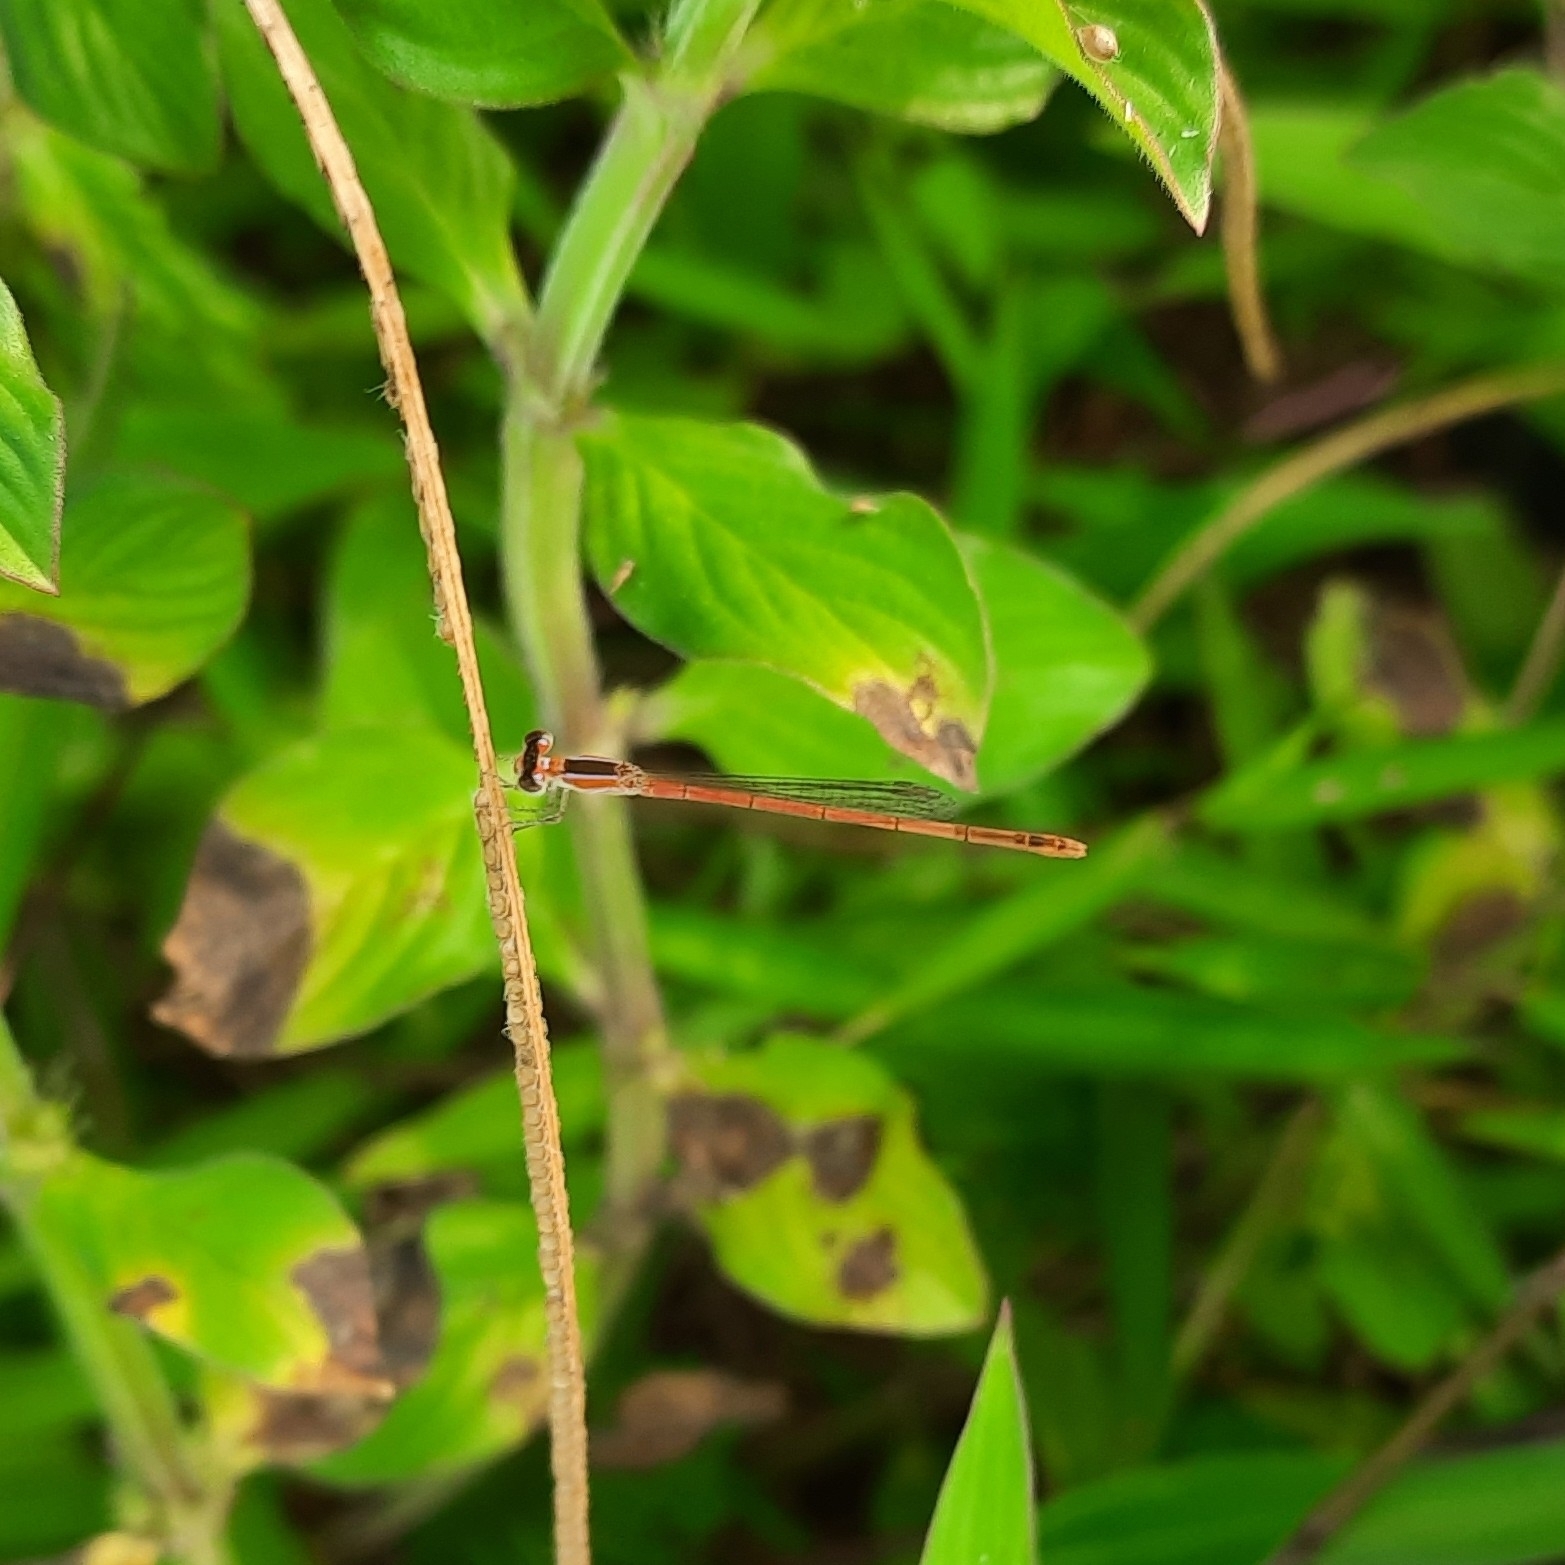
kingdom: Animalia
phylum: Arthropoda
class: Insecta
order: Odonata
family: Coenagrionidae
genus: Agriocnemis
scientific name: Agriocnemis pygmaea
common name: Pygmy wisp
